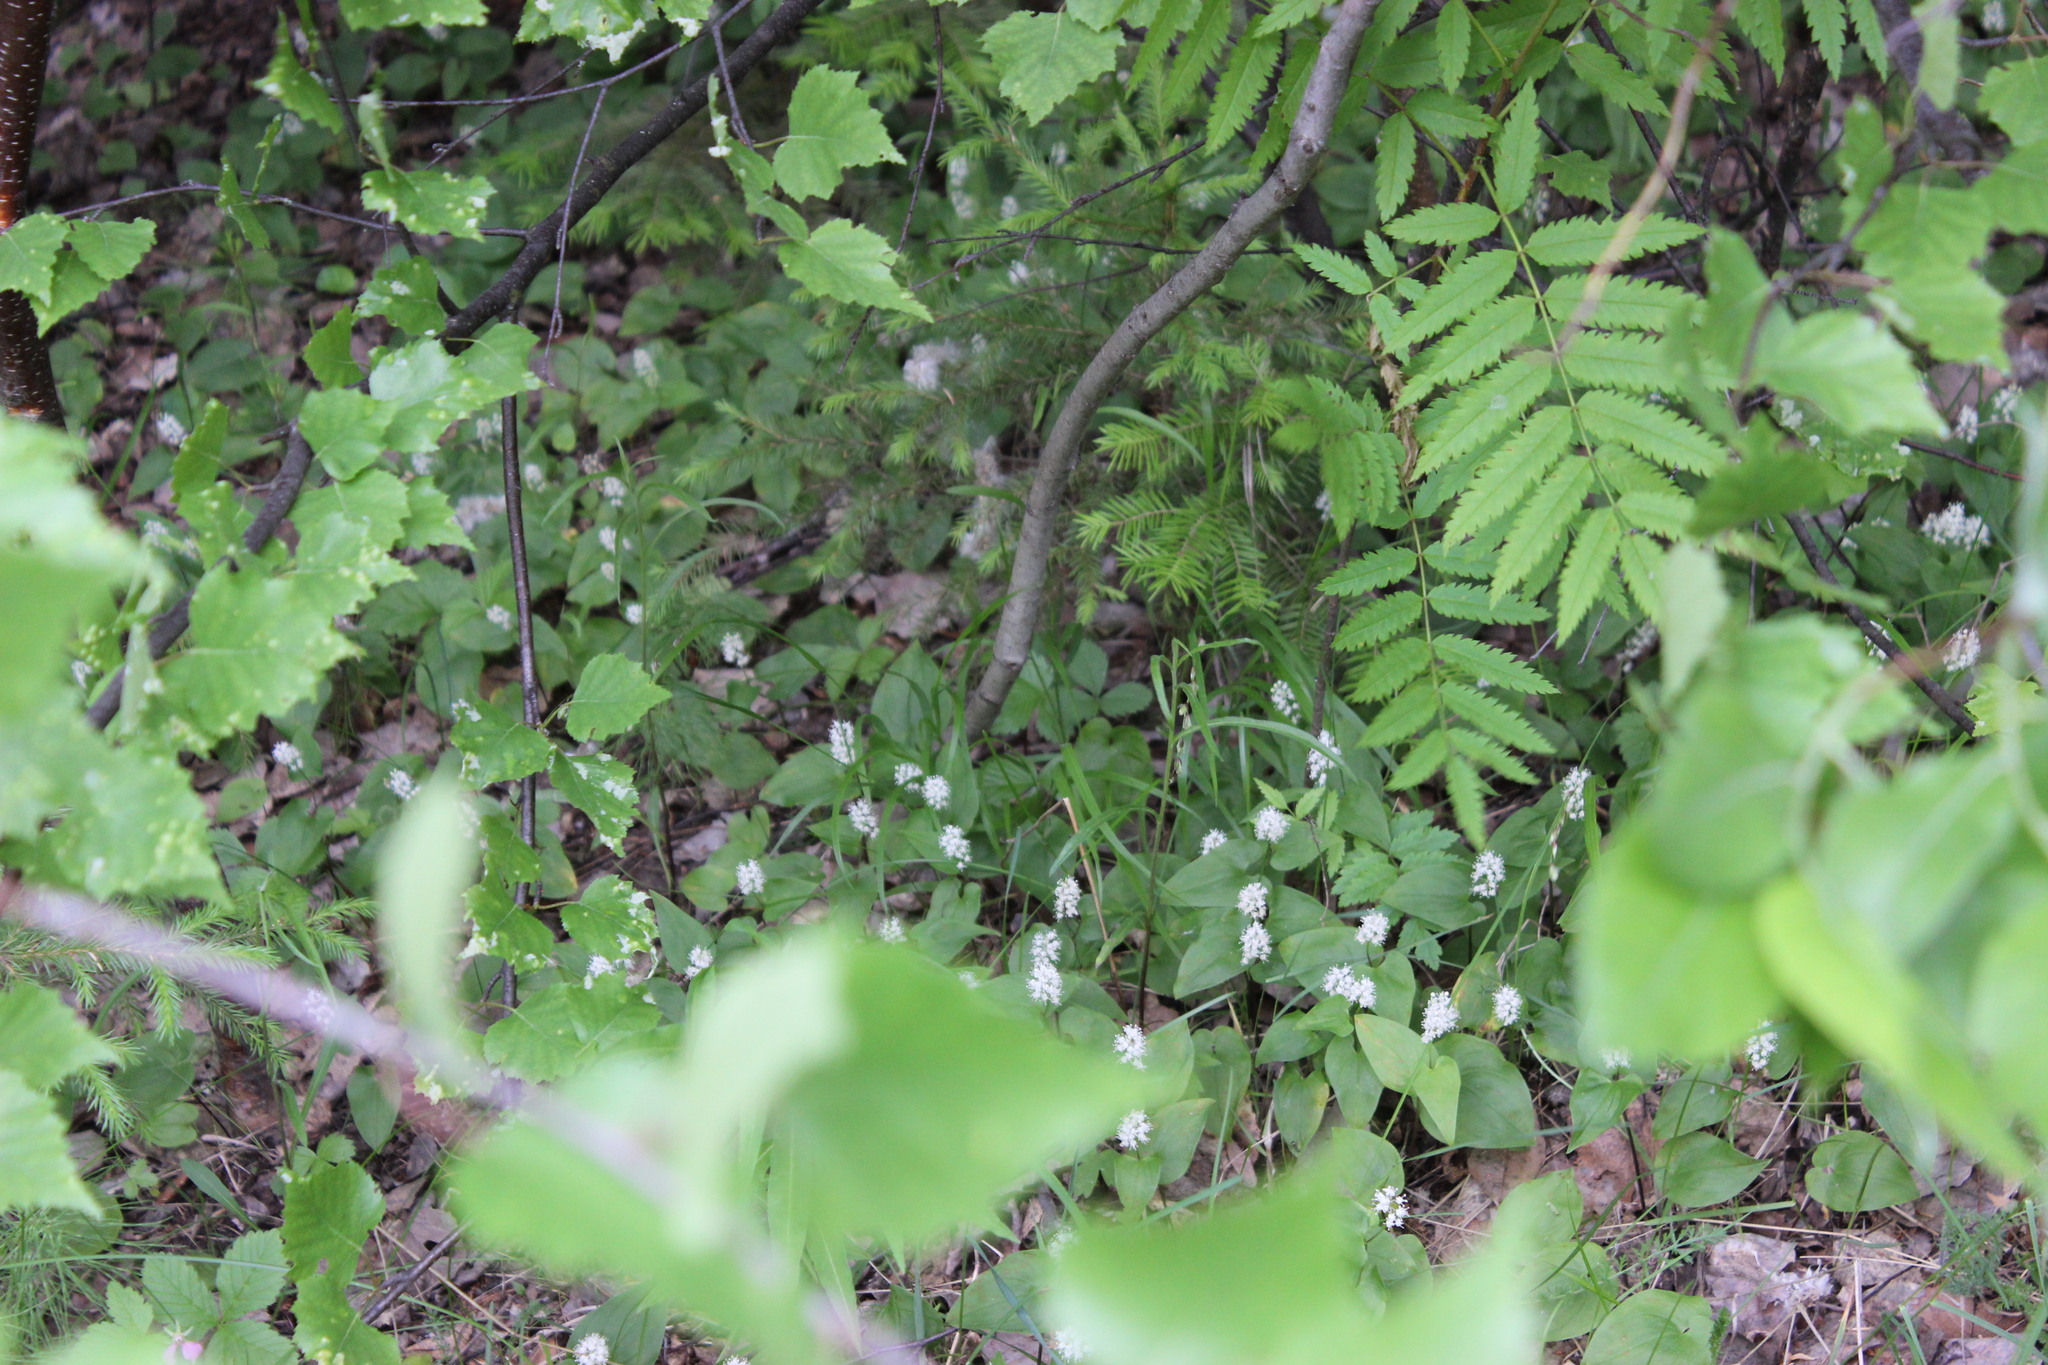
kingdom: Plantae
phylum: Tracheophyta
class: Magnoliopsida
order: Rosales
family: Rosaceae
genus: Sorbus
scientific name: Sorbus aucuparia
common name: Rowan
